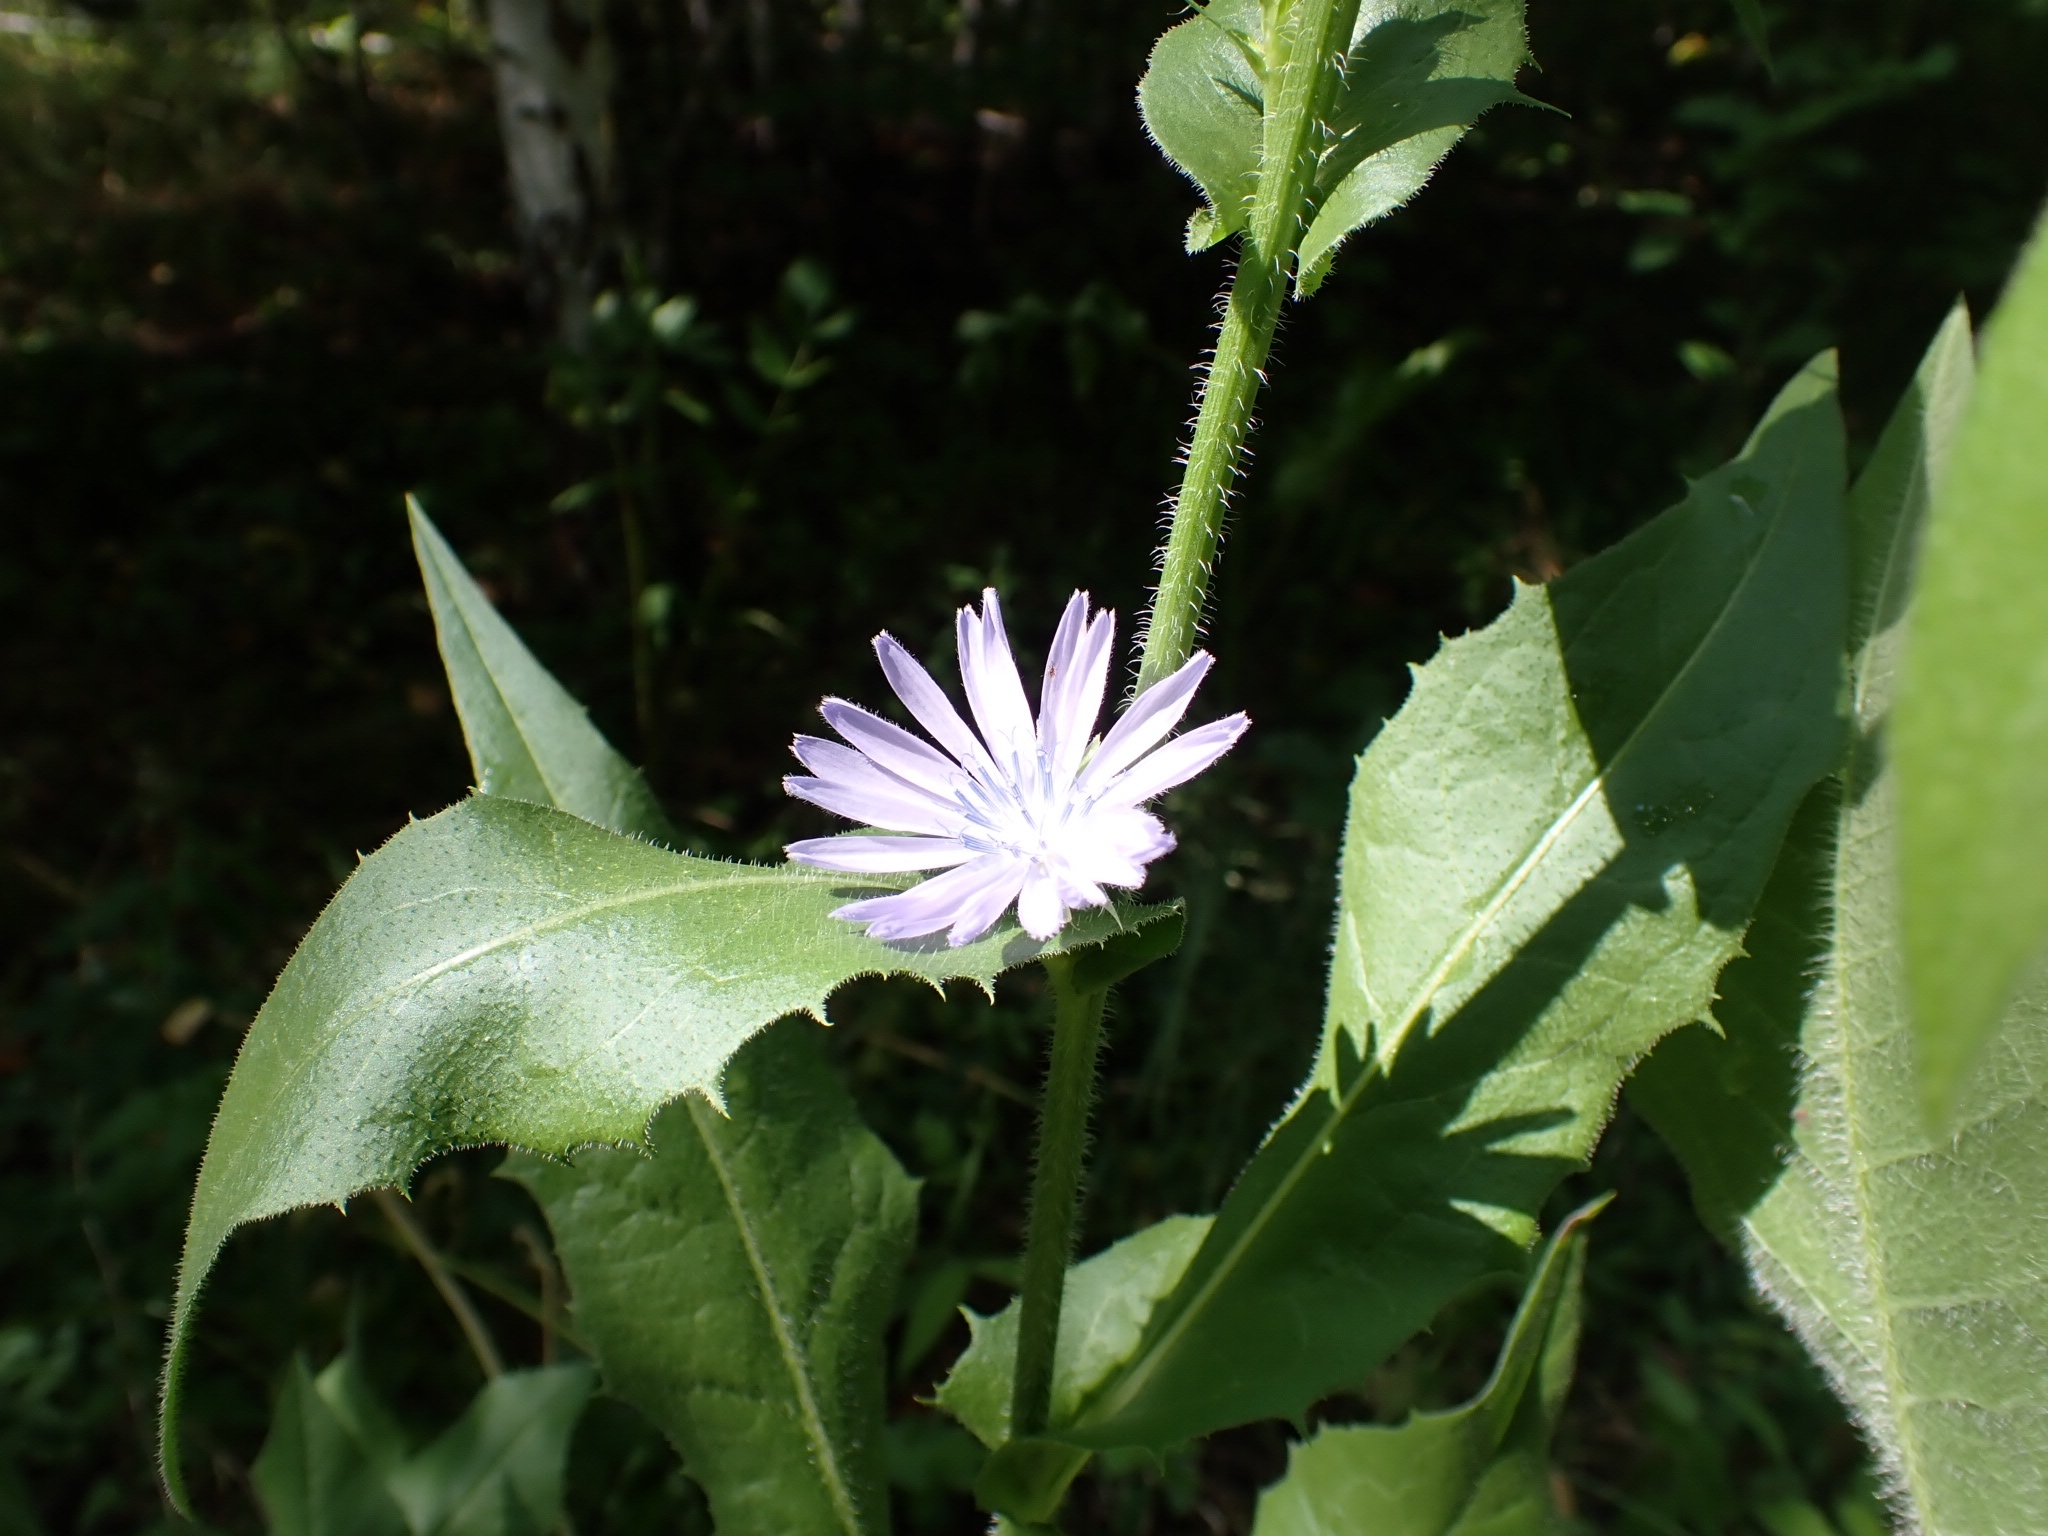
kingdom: Plantae
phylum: Tracheophyta
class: Magnoliopsida
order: Asterales
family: Asteraceae
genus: Cichorium
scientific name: Cichorium intybus
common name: Chicory
